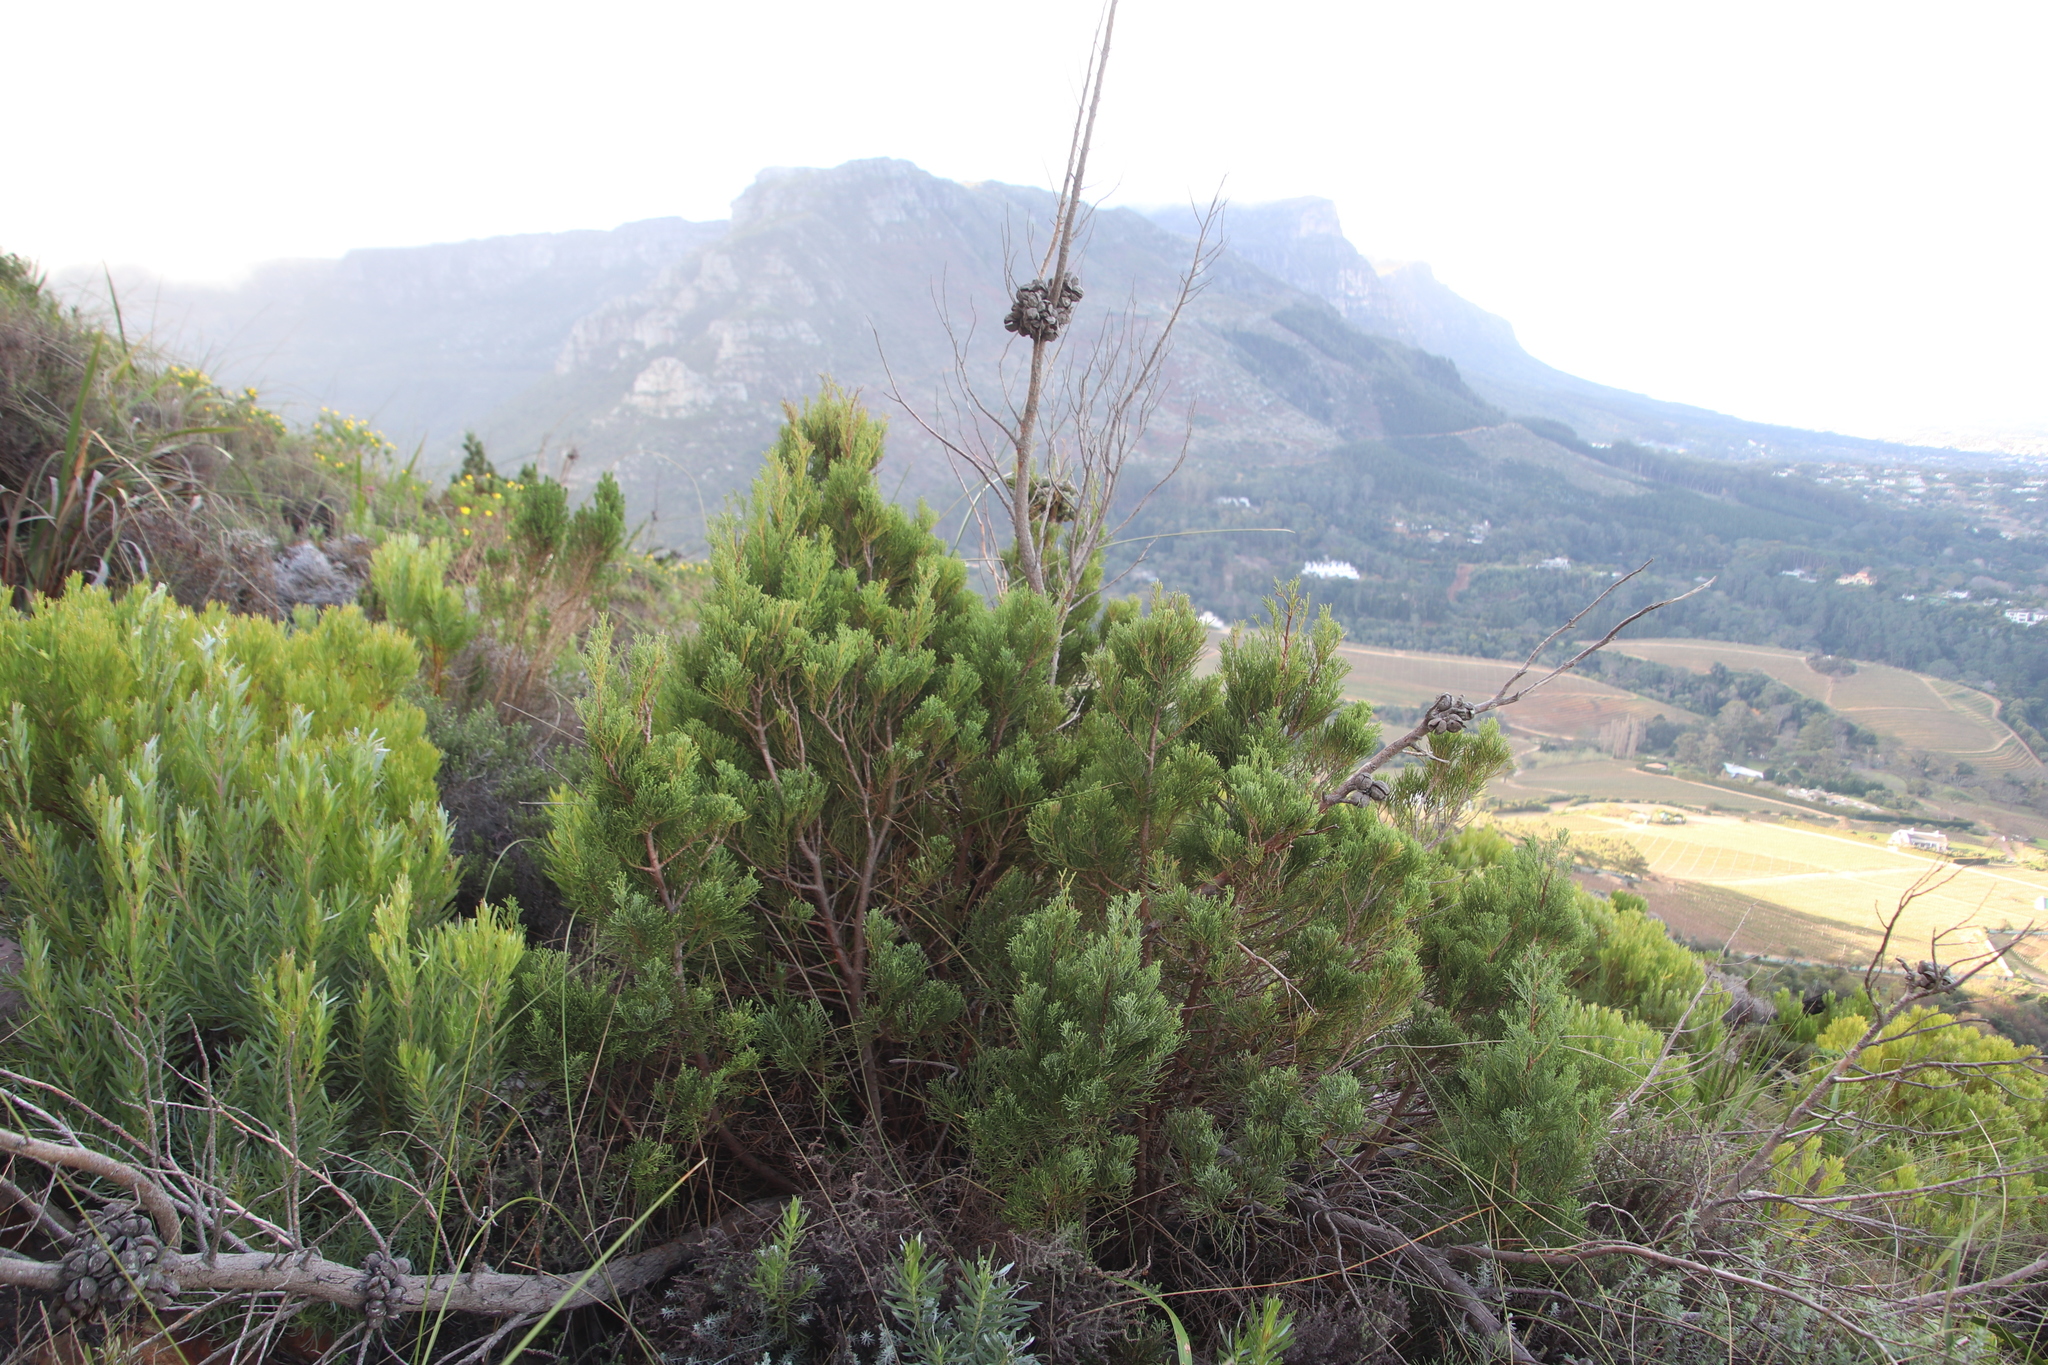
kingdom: Plantae
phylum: Tracheophyta
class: Pinopsida
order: Pinales
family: Cupressaceae
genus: Widdringtonia
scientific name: Widdringtonia nodiflora
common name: Cape cypress
